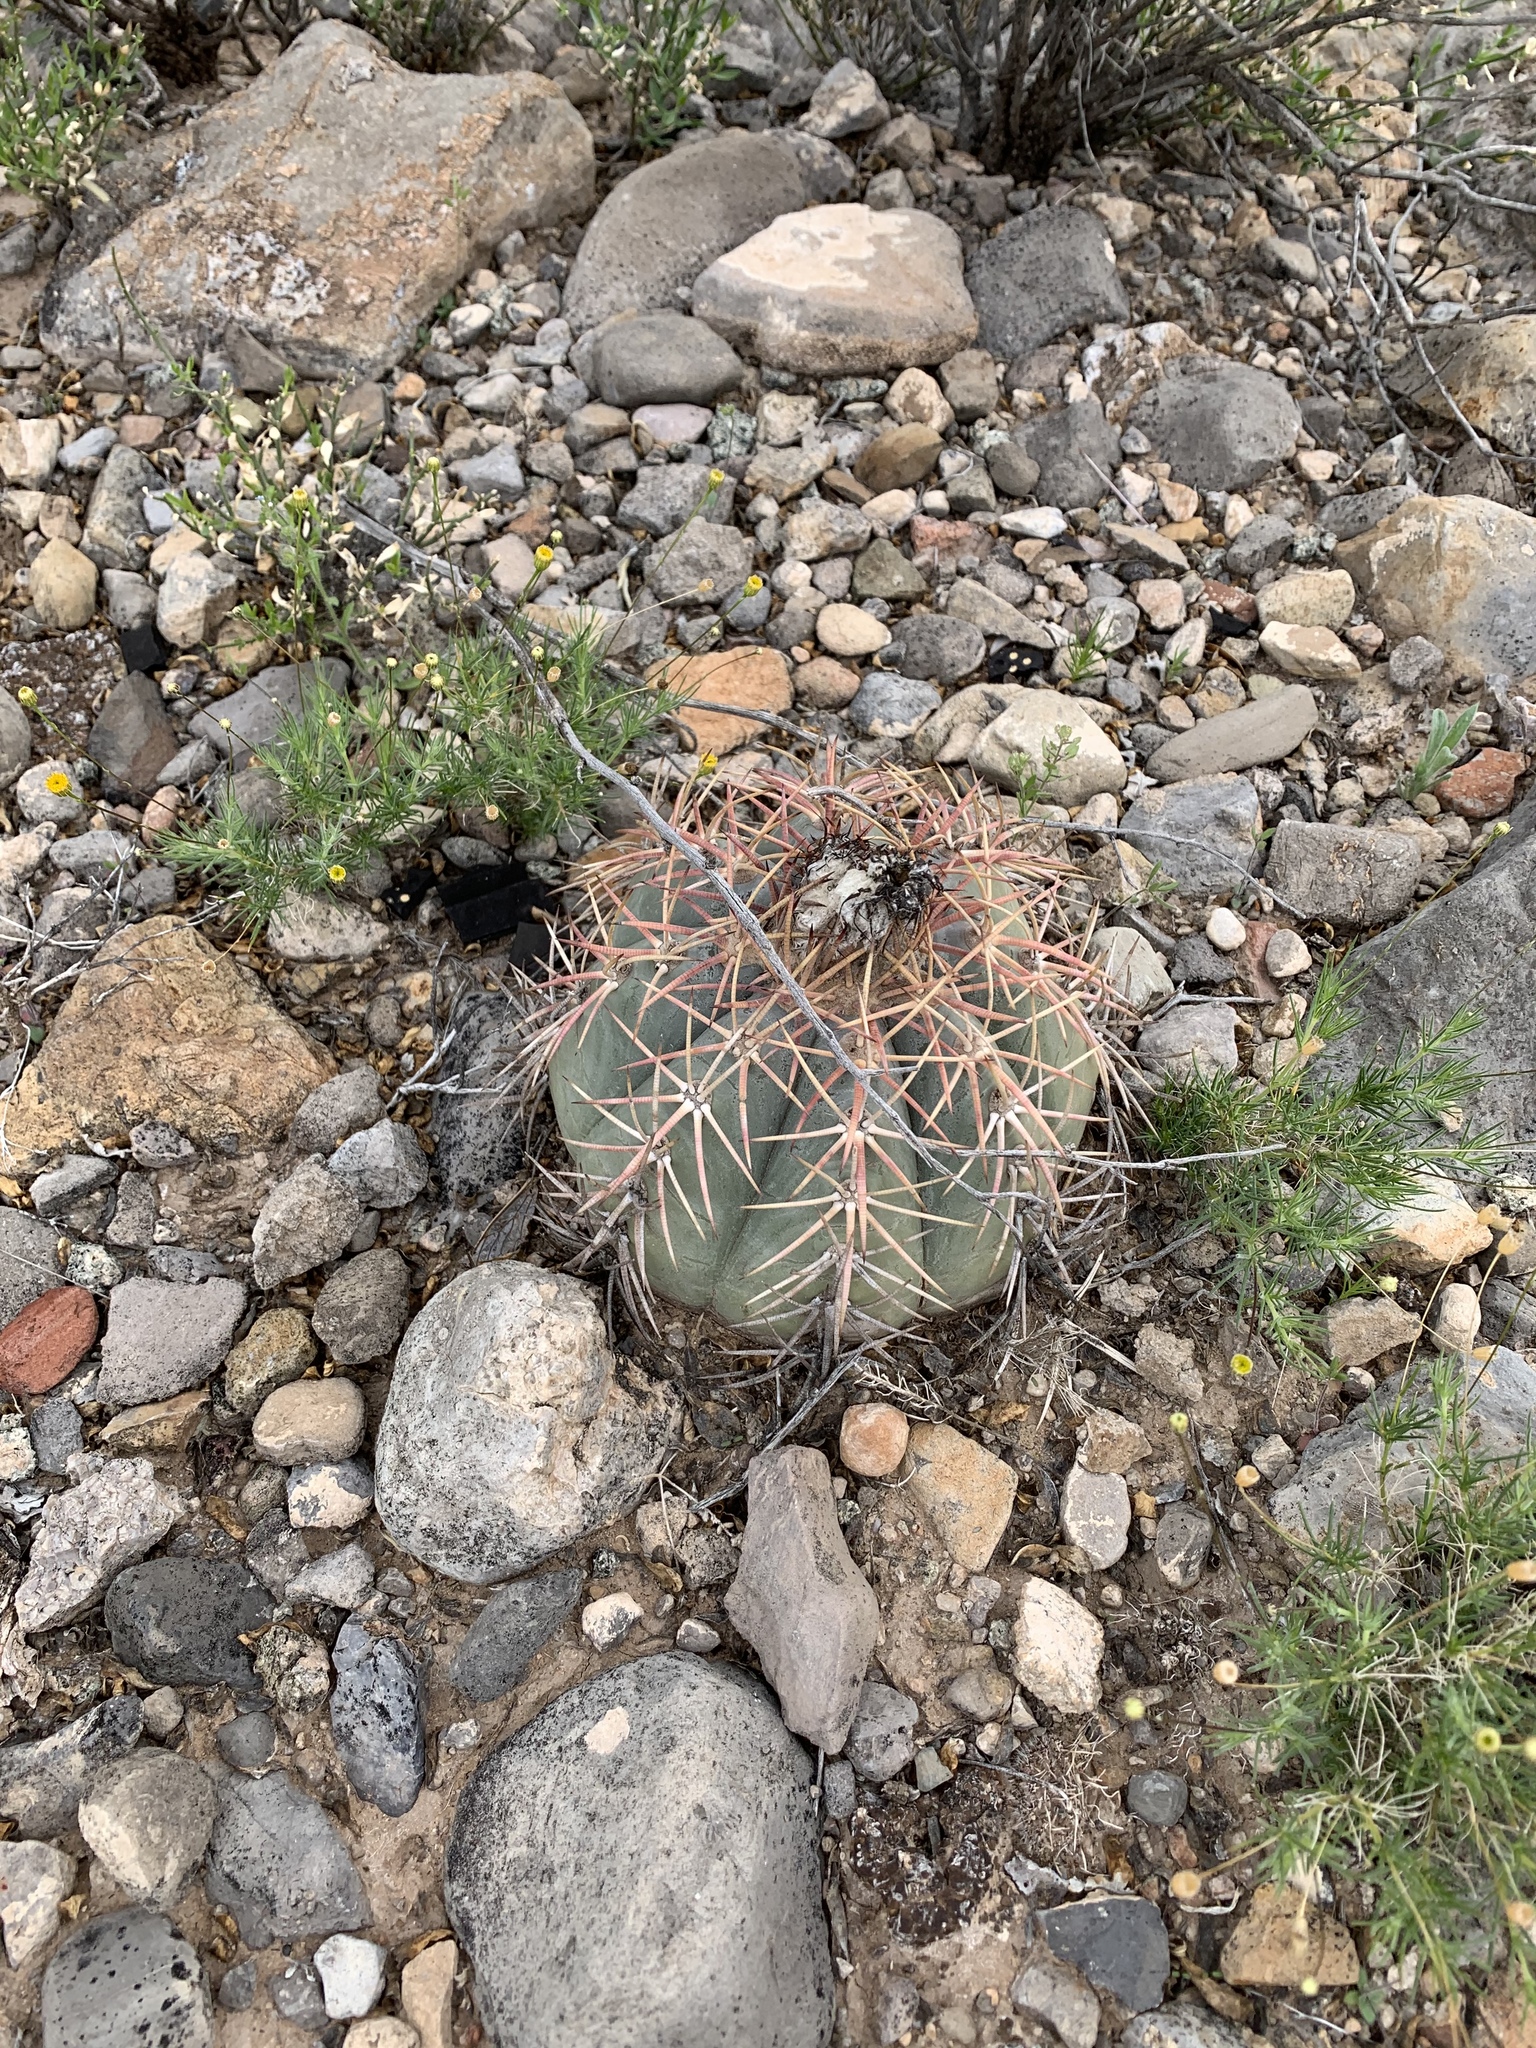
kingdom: Plantae
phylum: Tracheophyta
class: Magnoliopsida
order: Caryophyllales
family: Cactaceae
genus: Echinocactus
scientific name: Echinocactus horizonthalonius
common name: Devilshead
